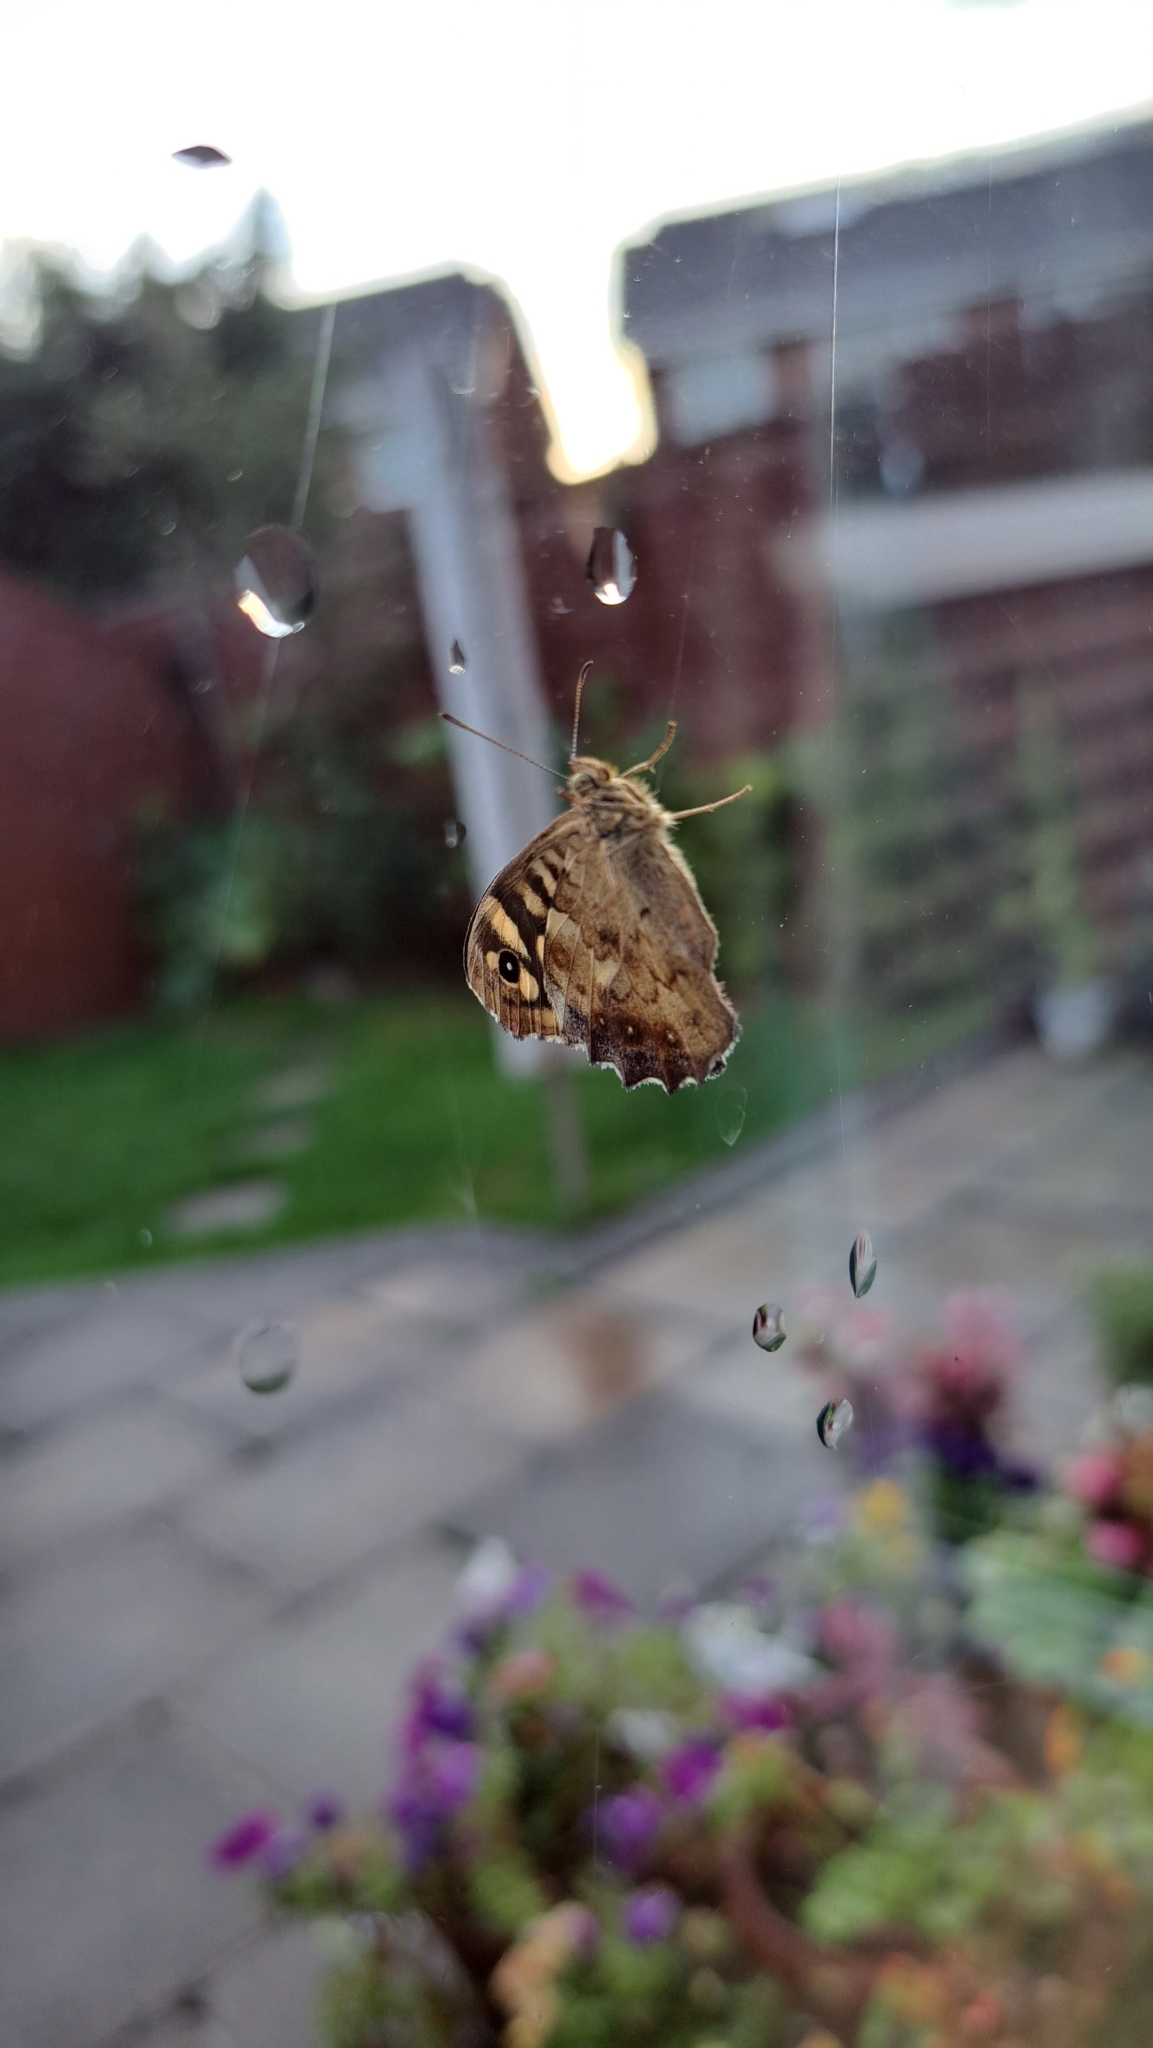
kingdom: Animalia
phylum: Arthropoda
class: Insecta
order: Lepidoptera
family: Nymphalidae
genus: Pararge
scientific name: Pararge aegeria
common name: Speckled wood
